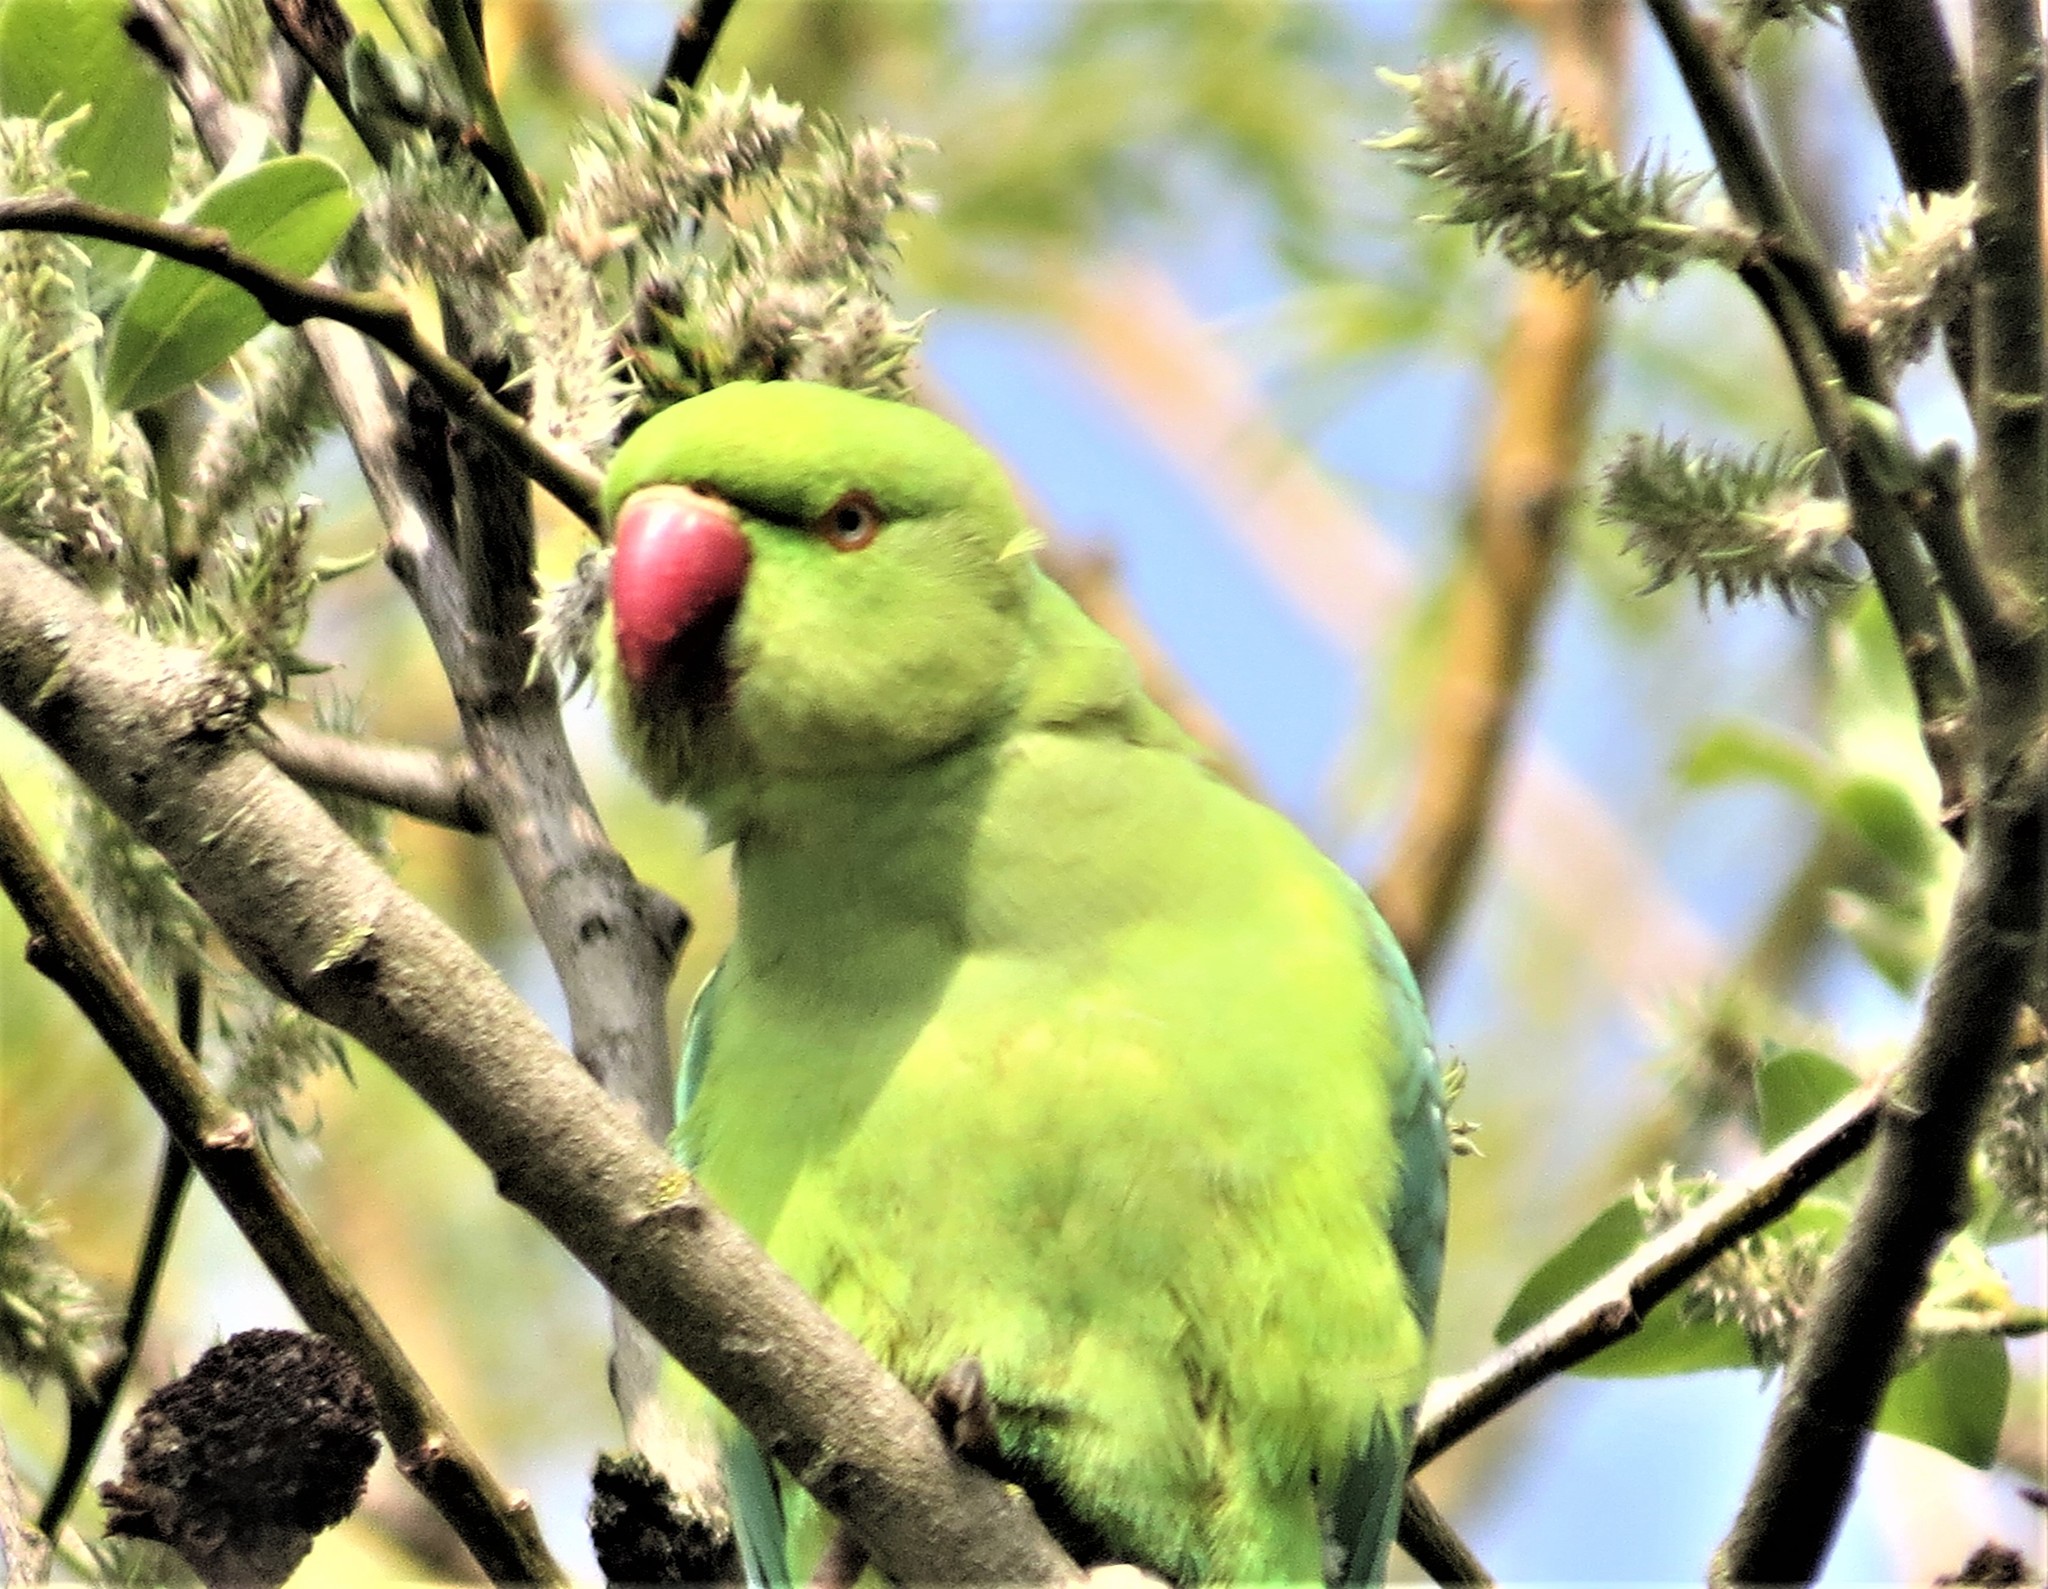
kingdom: Animalia
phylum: Chordata
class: Aves
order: Psittaciformes
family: Psittacidae
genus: Psittacula
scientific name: Psittacula krameri
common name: Rose-ringed parakeet
